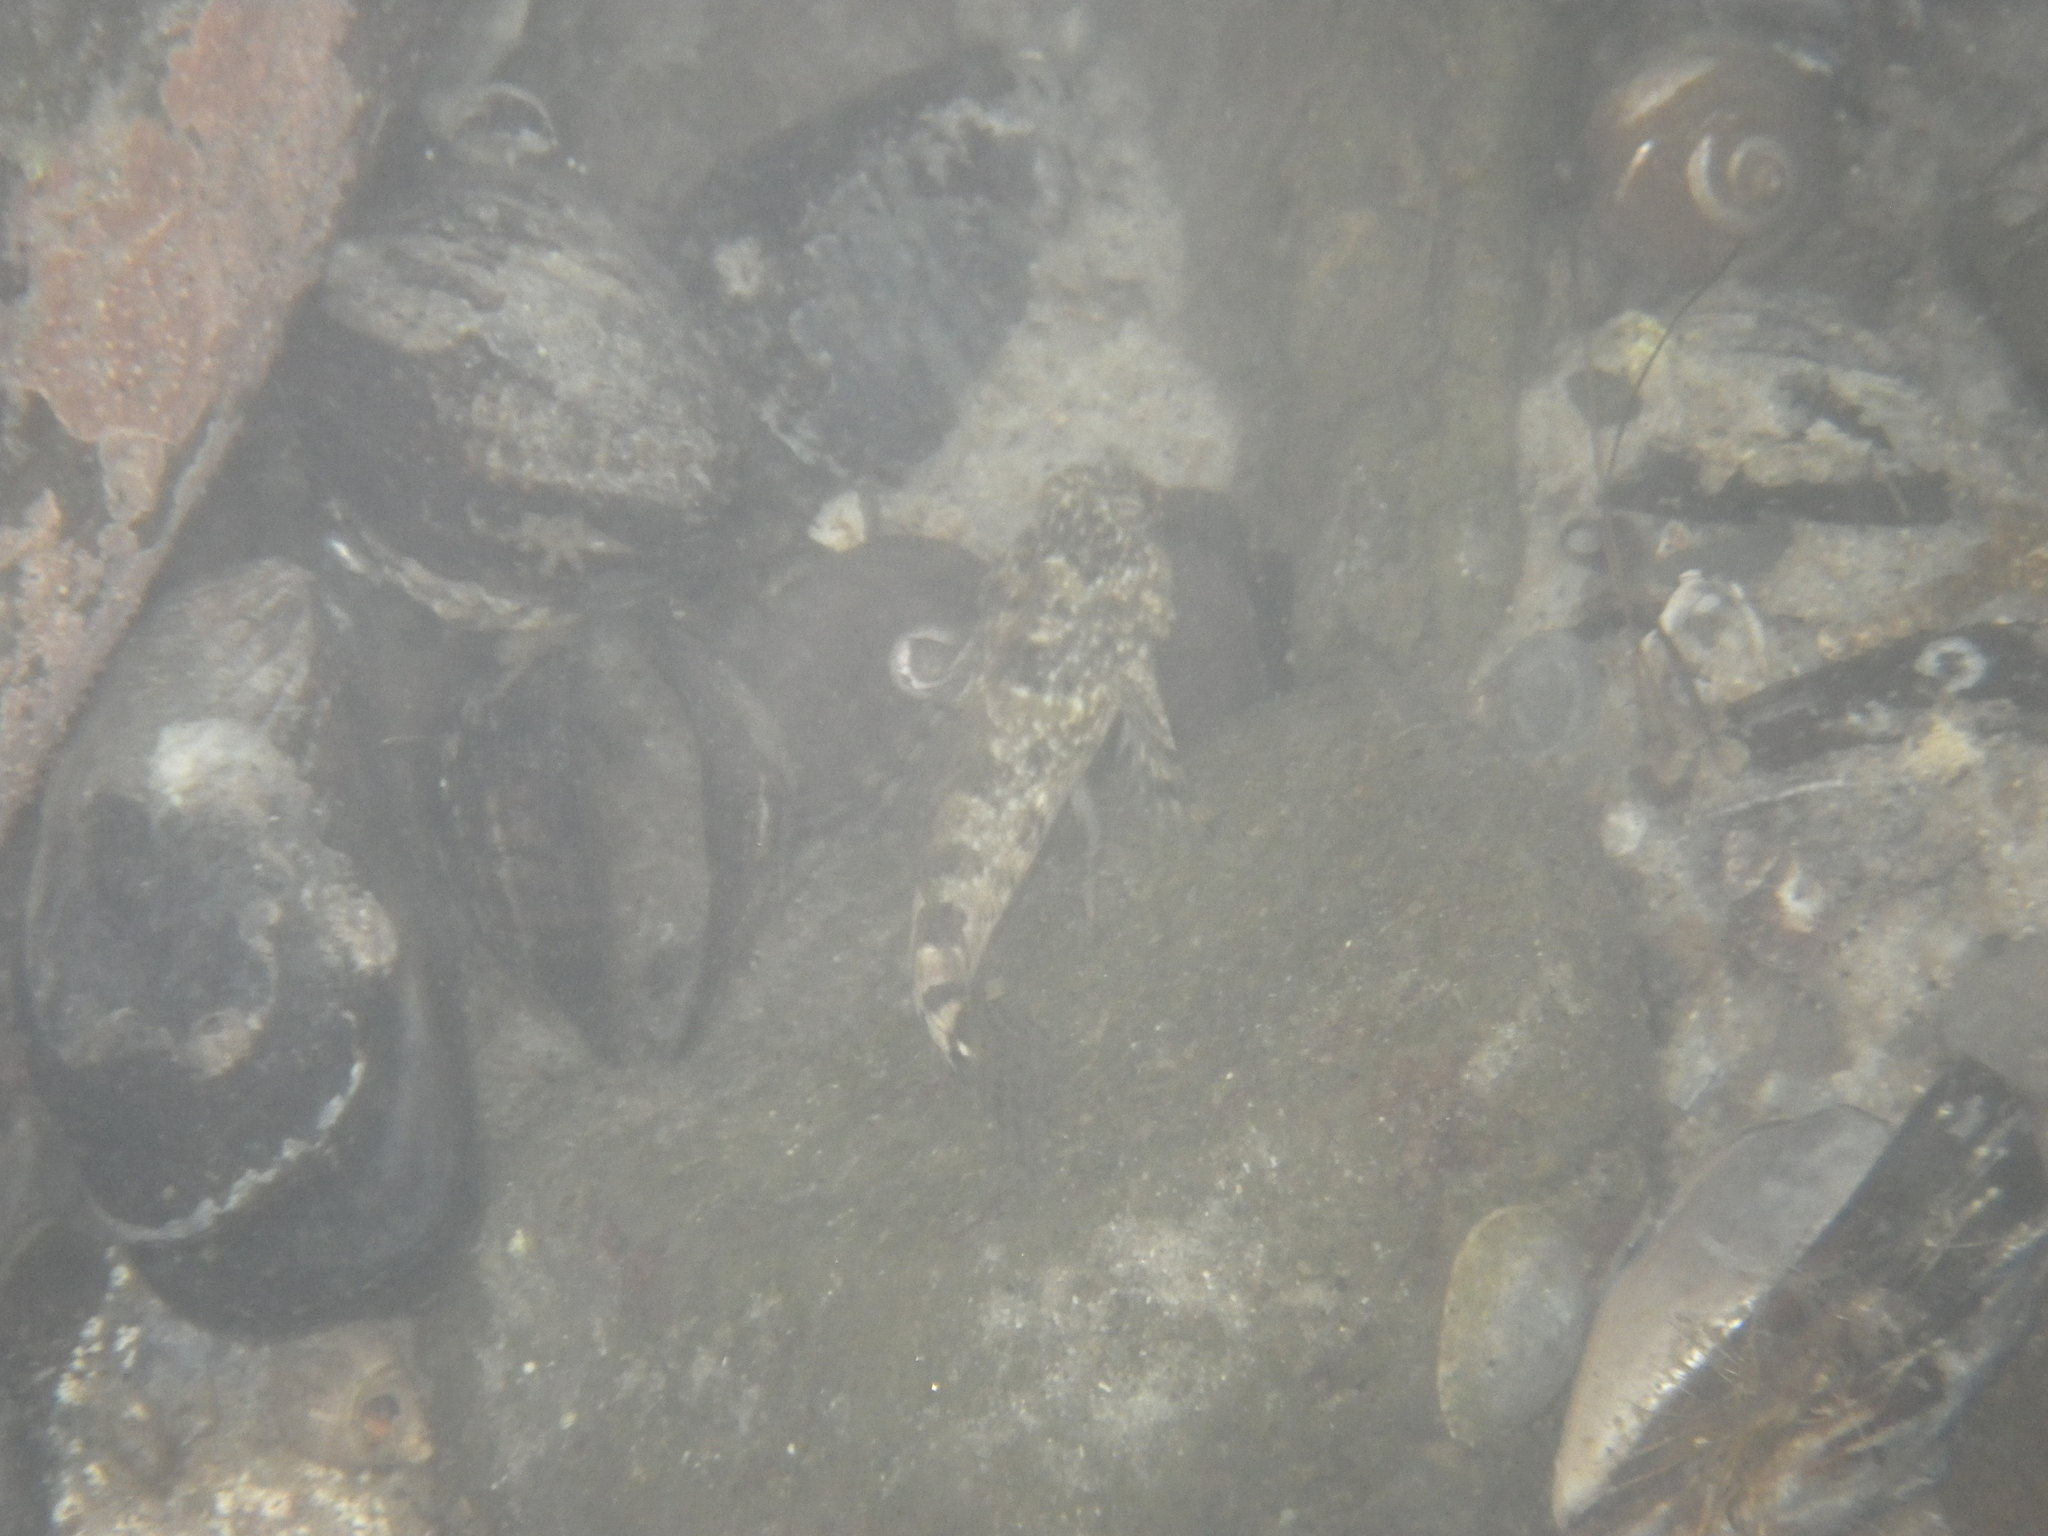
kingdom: Animalia
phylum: Chordata
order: Scorpaeniformes
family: Cottidae
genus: Clinocottus
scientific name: Clinocottus analis
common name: Woolly sculpin
